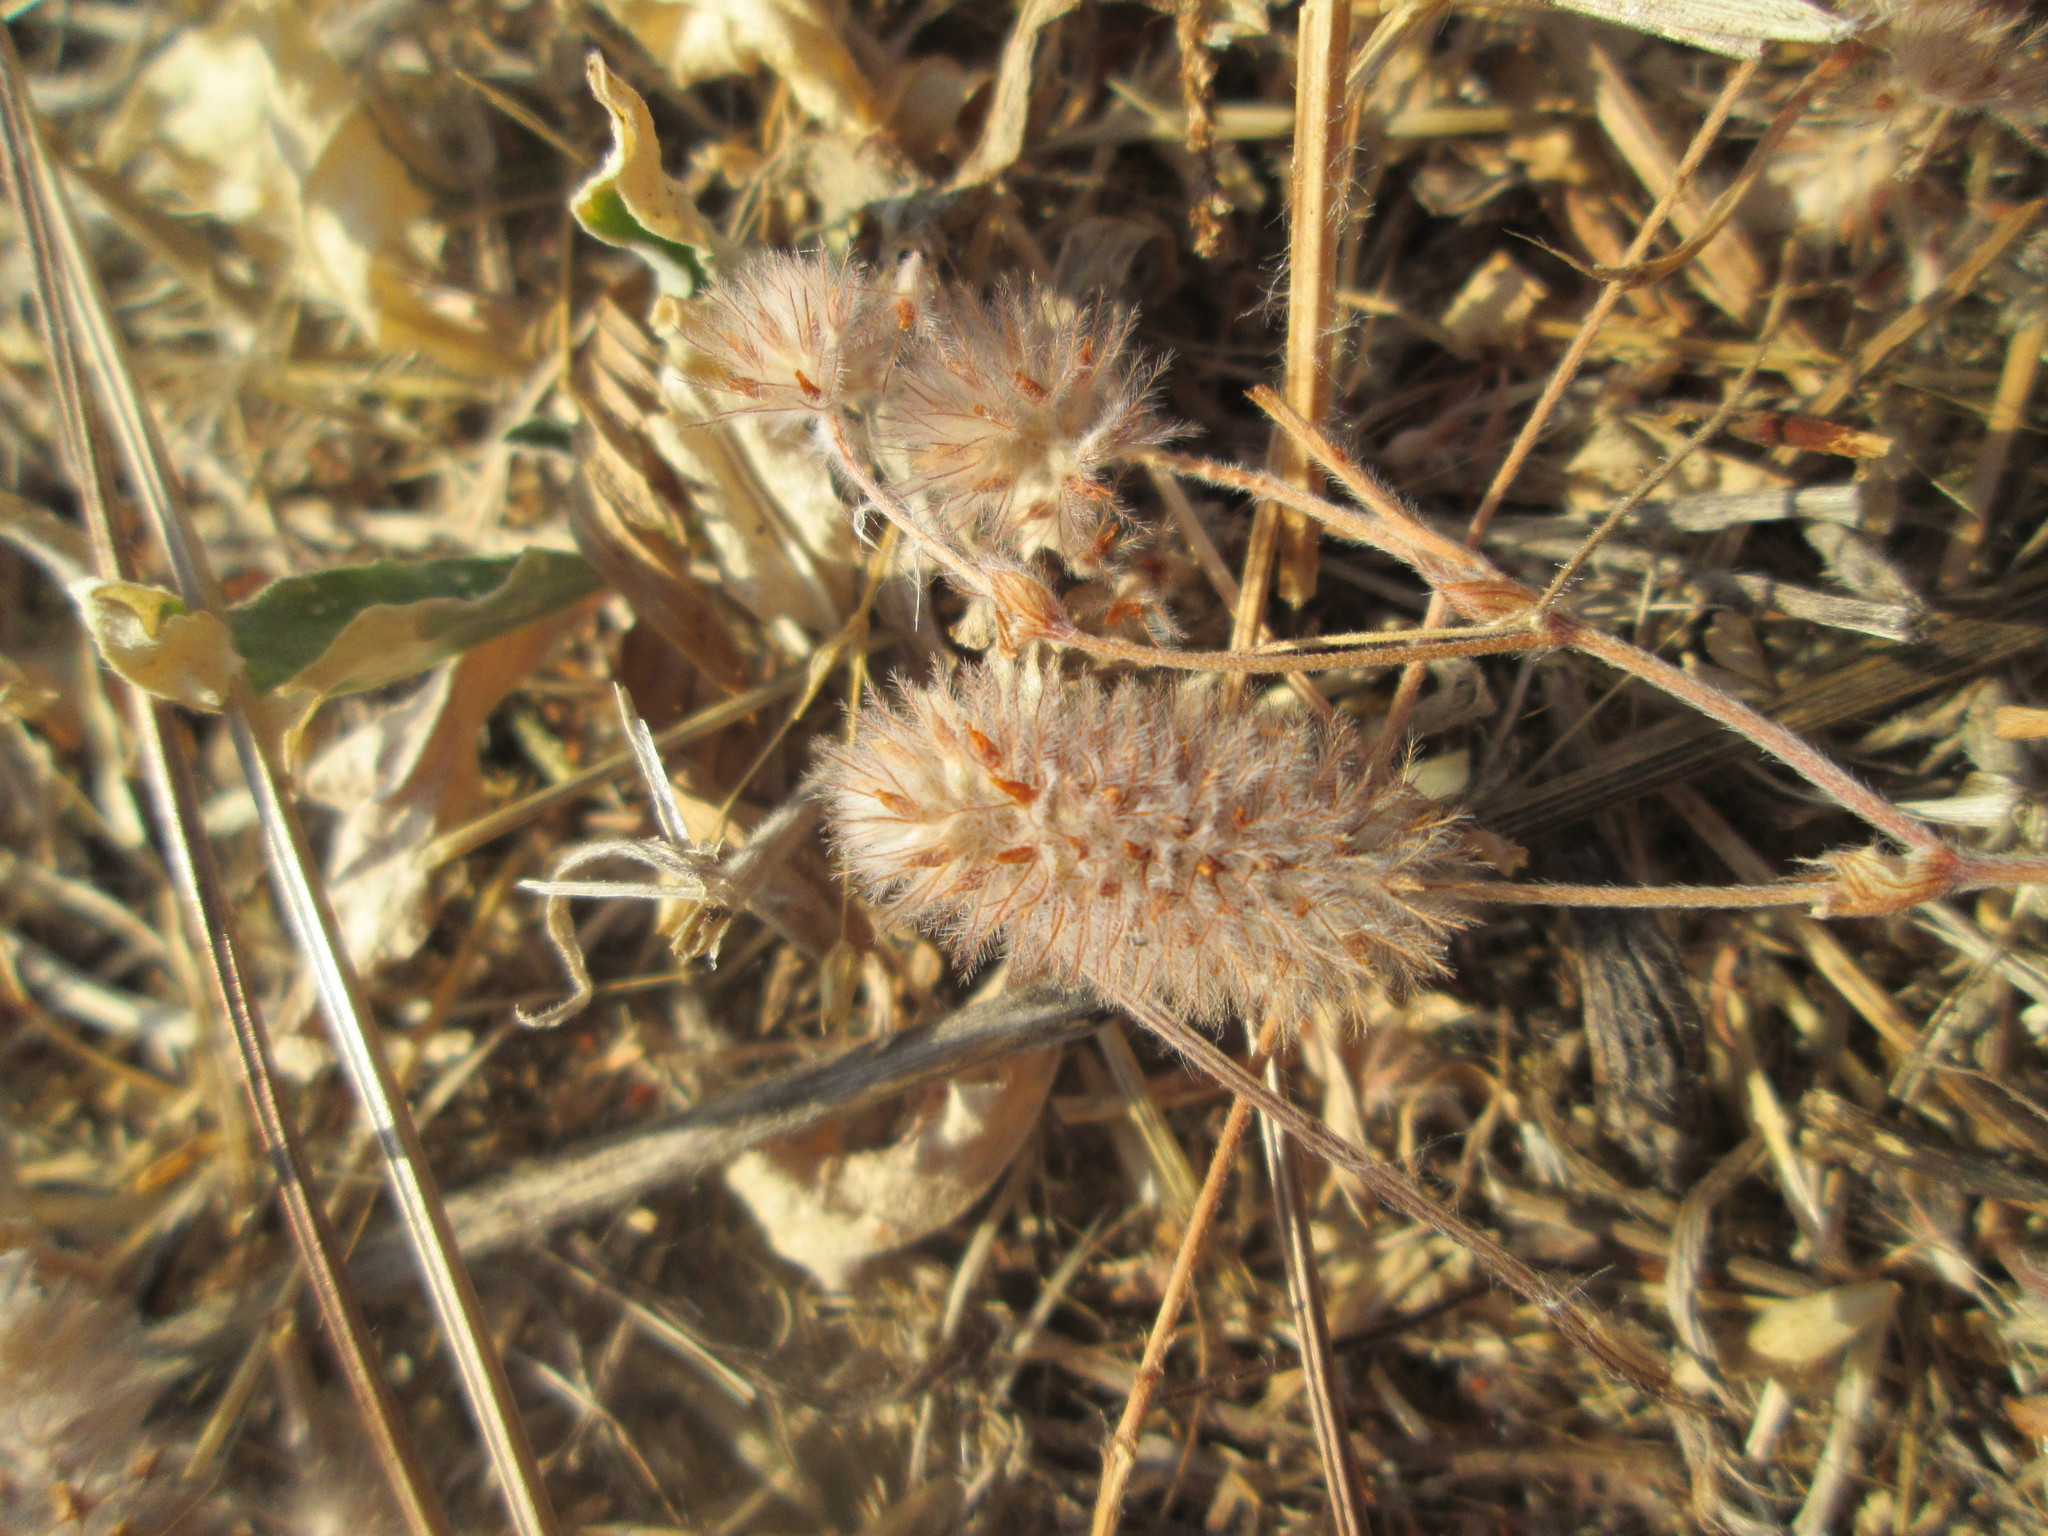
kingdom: Plantae
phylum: Tracheophyta
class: Magnoliopsida
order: Fabales
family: Fabaceae
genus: Trifolium
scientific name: Trifolium arvense
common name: Hare's-foot clover
